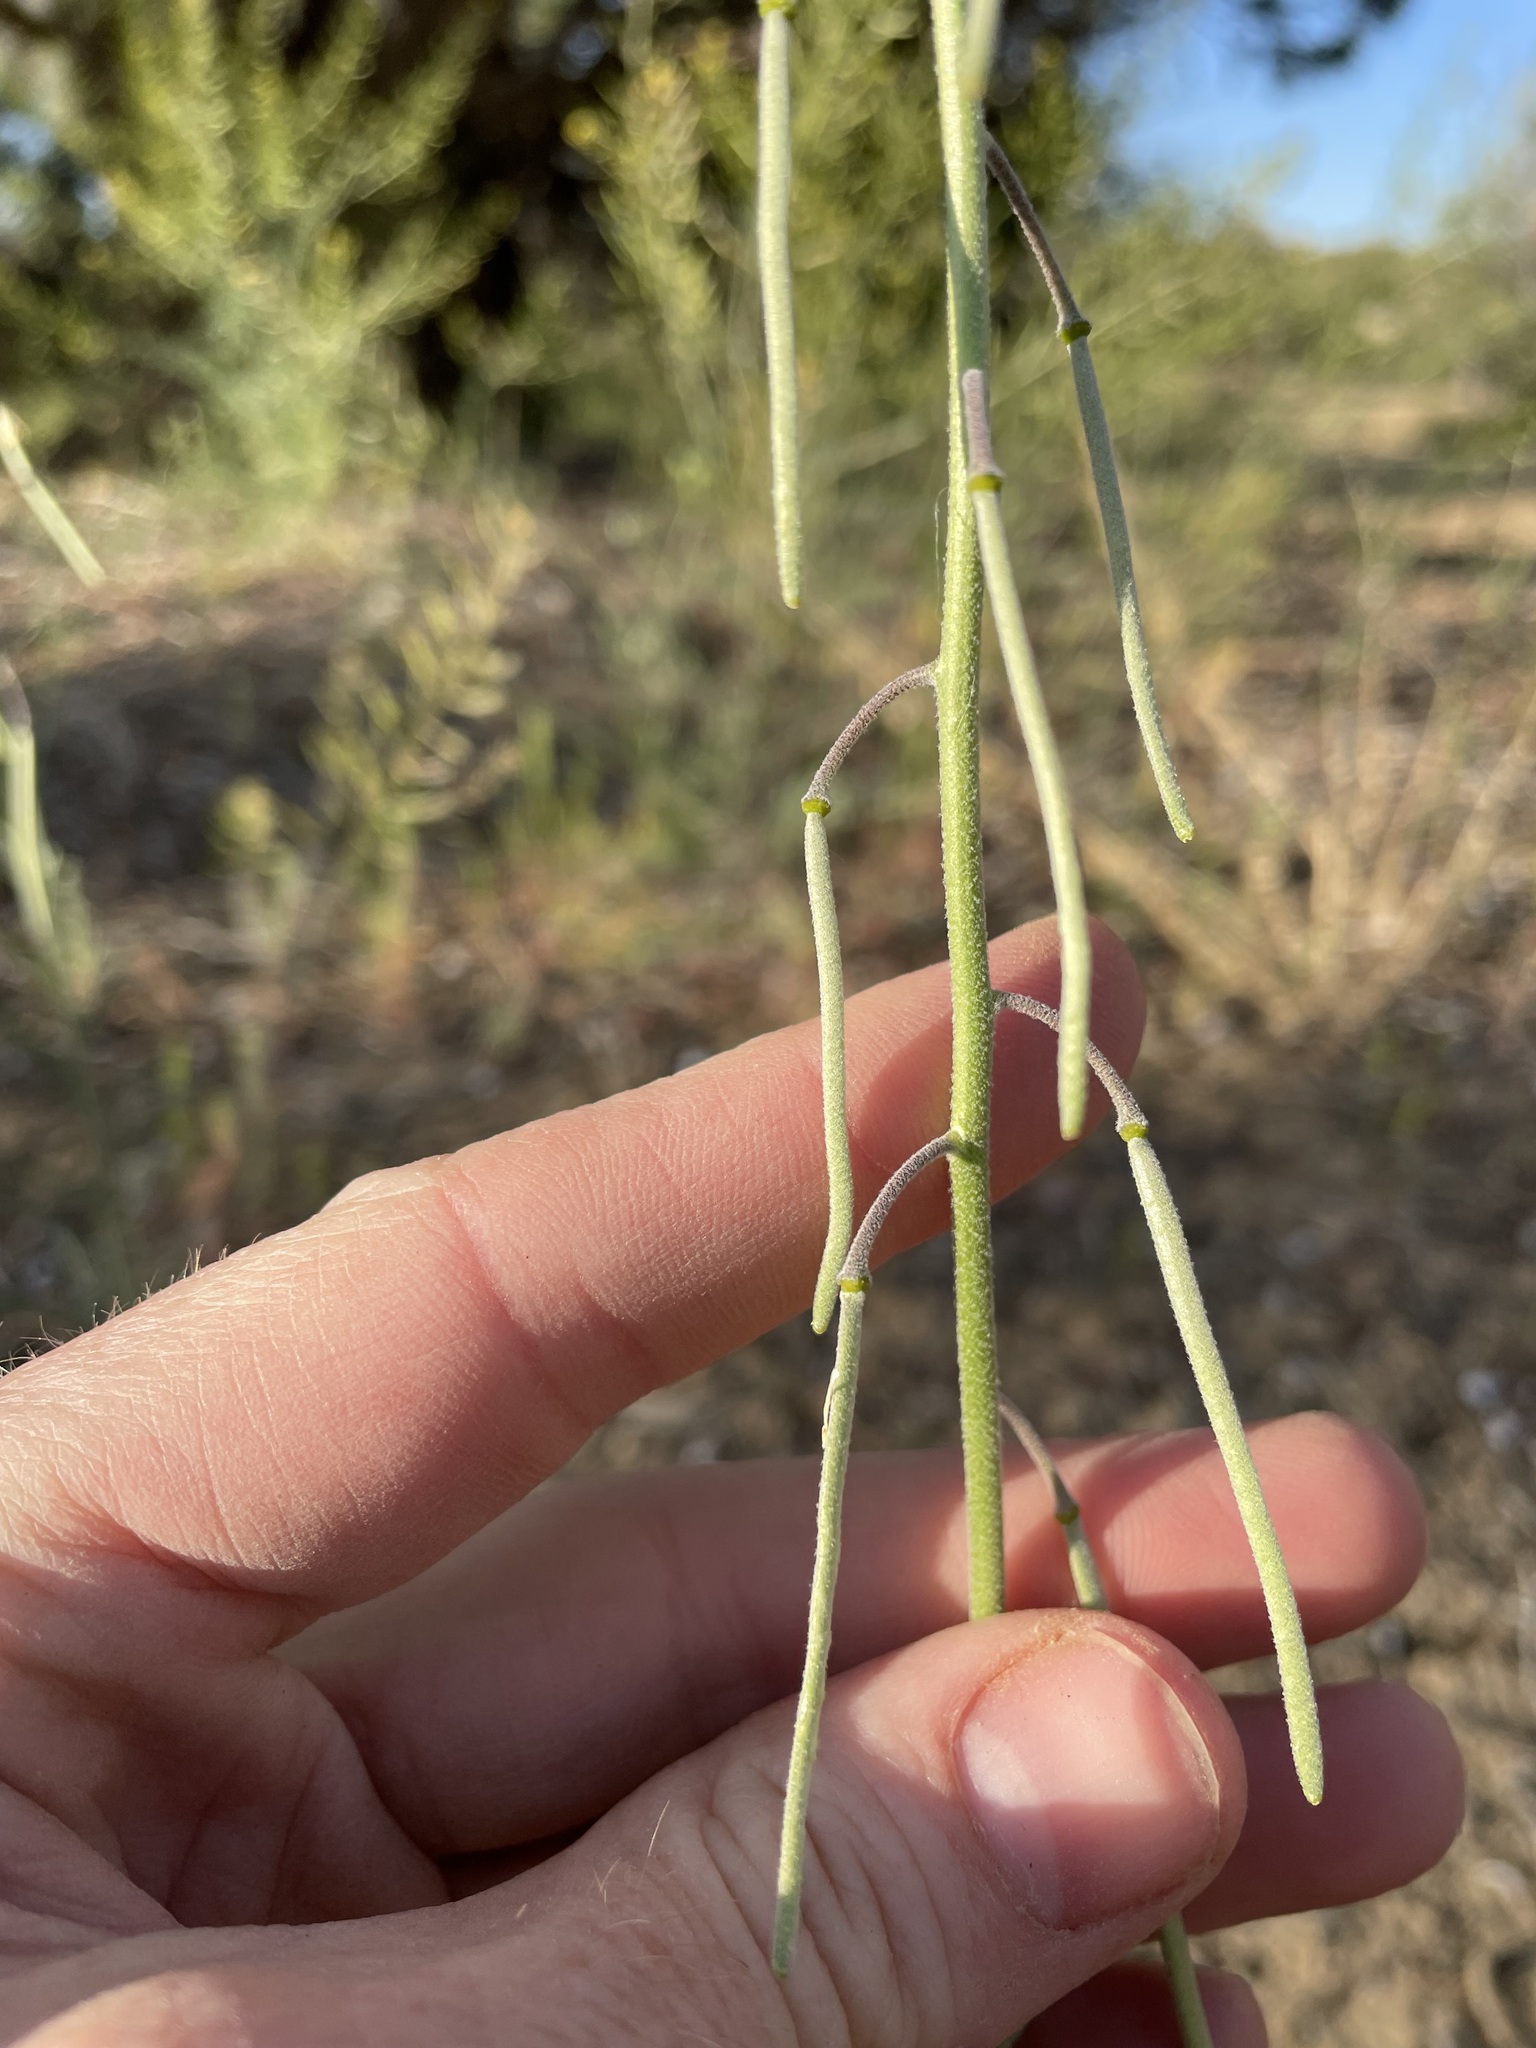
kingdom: Plantae
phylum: Tracheophyta
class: Magnoliopsida
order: Brassicales
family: Brassicaceae
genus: Boechera
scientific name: Boechera formosa
